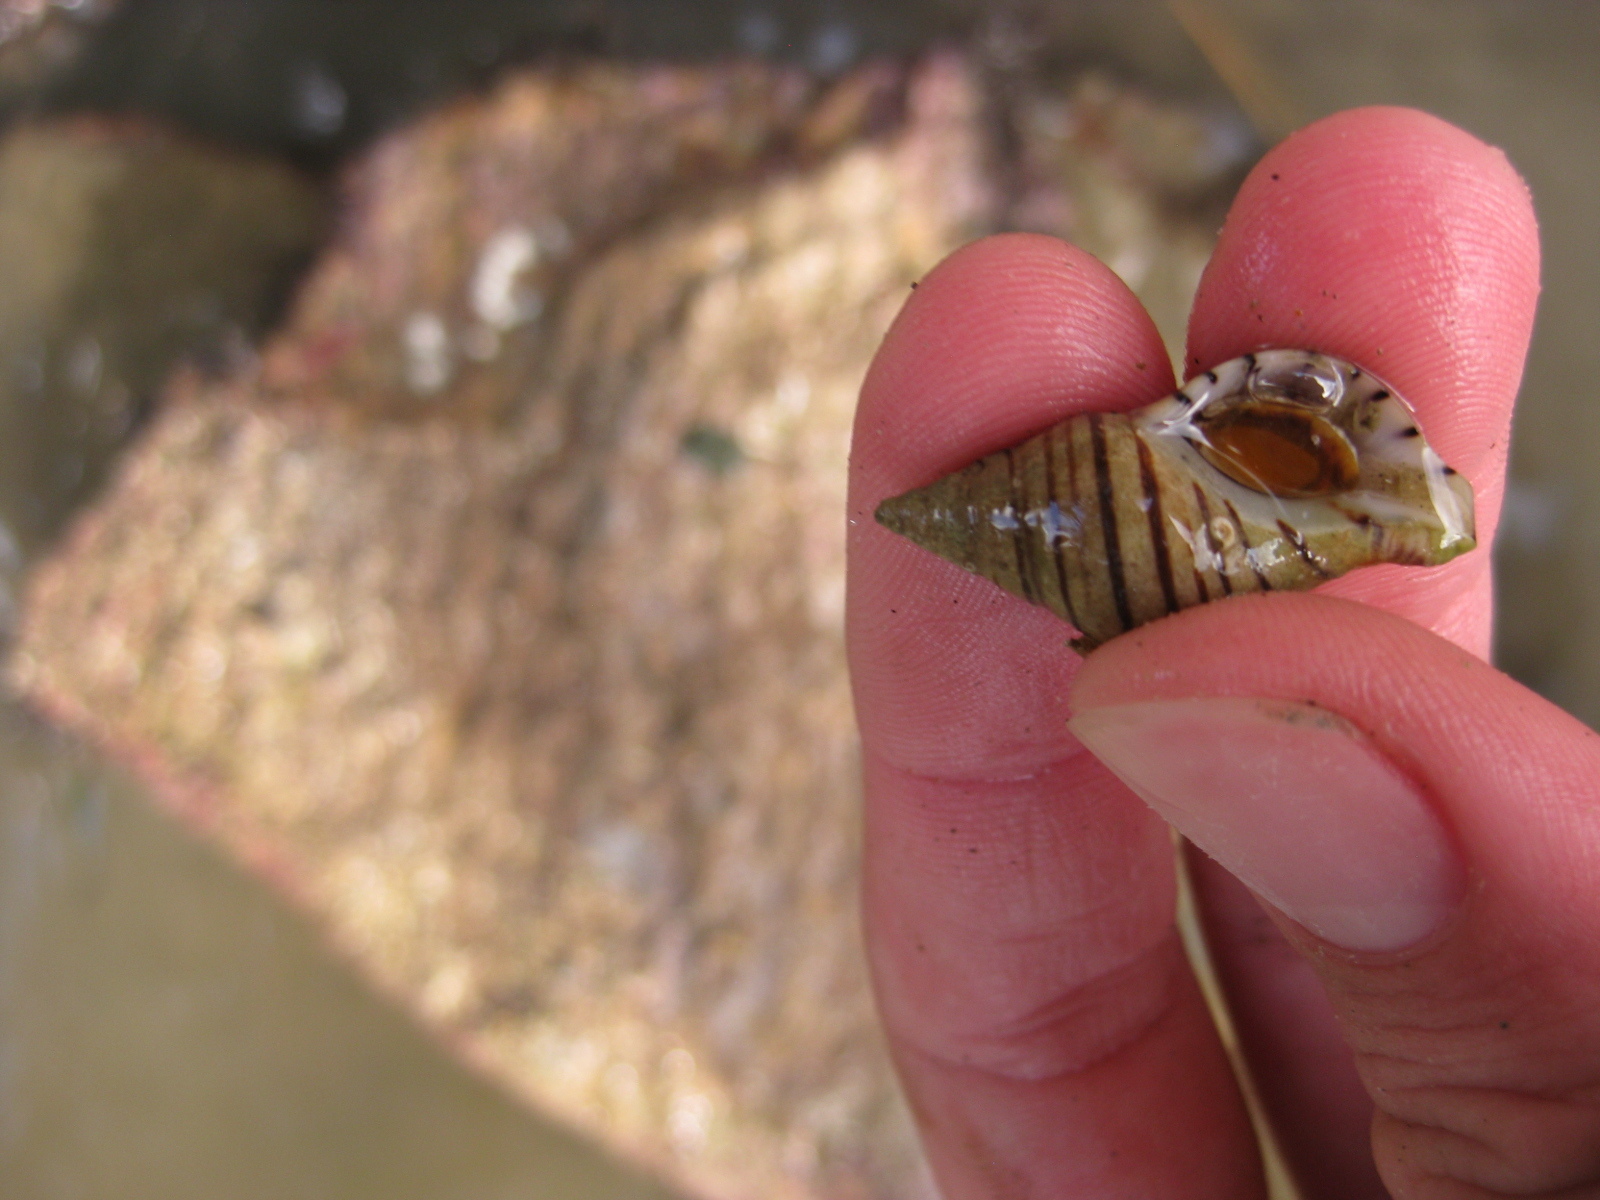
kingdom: Animalia
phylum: Mollusca
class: Gastropoda
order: Neogastropoda
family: Tudiclidae
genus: Buccinulum
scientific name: Buccinulum linea
